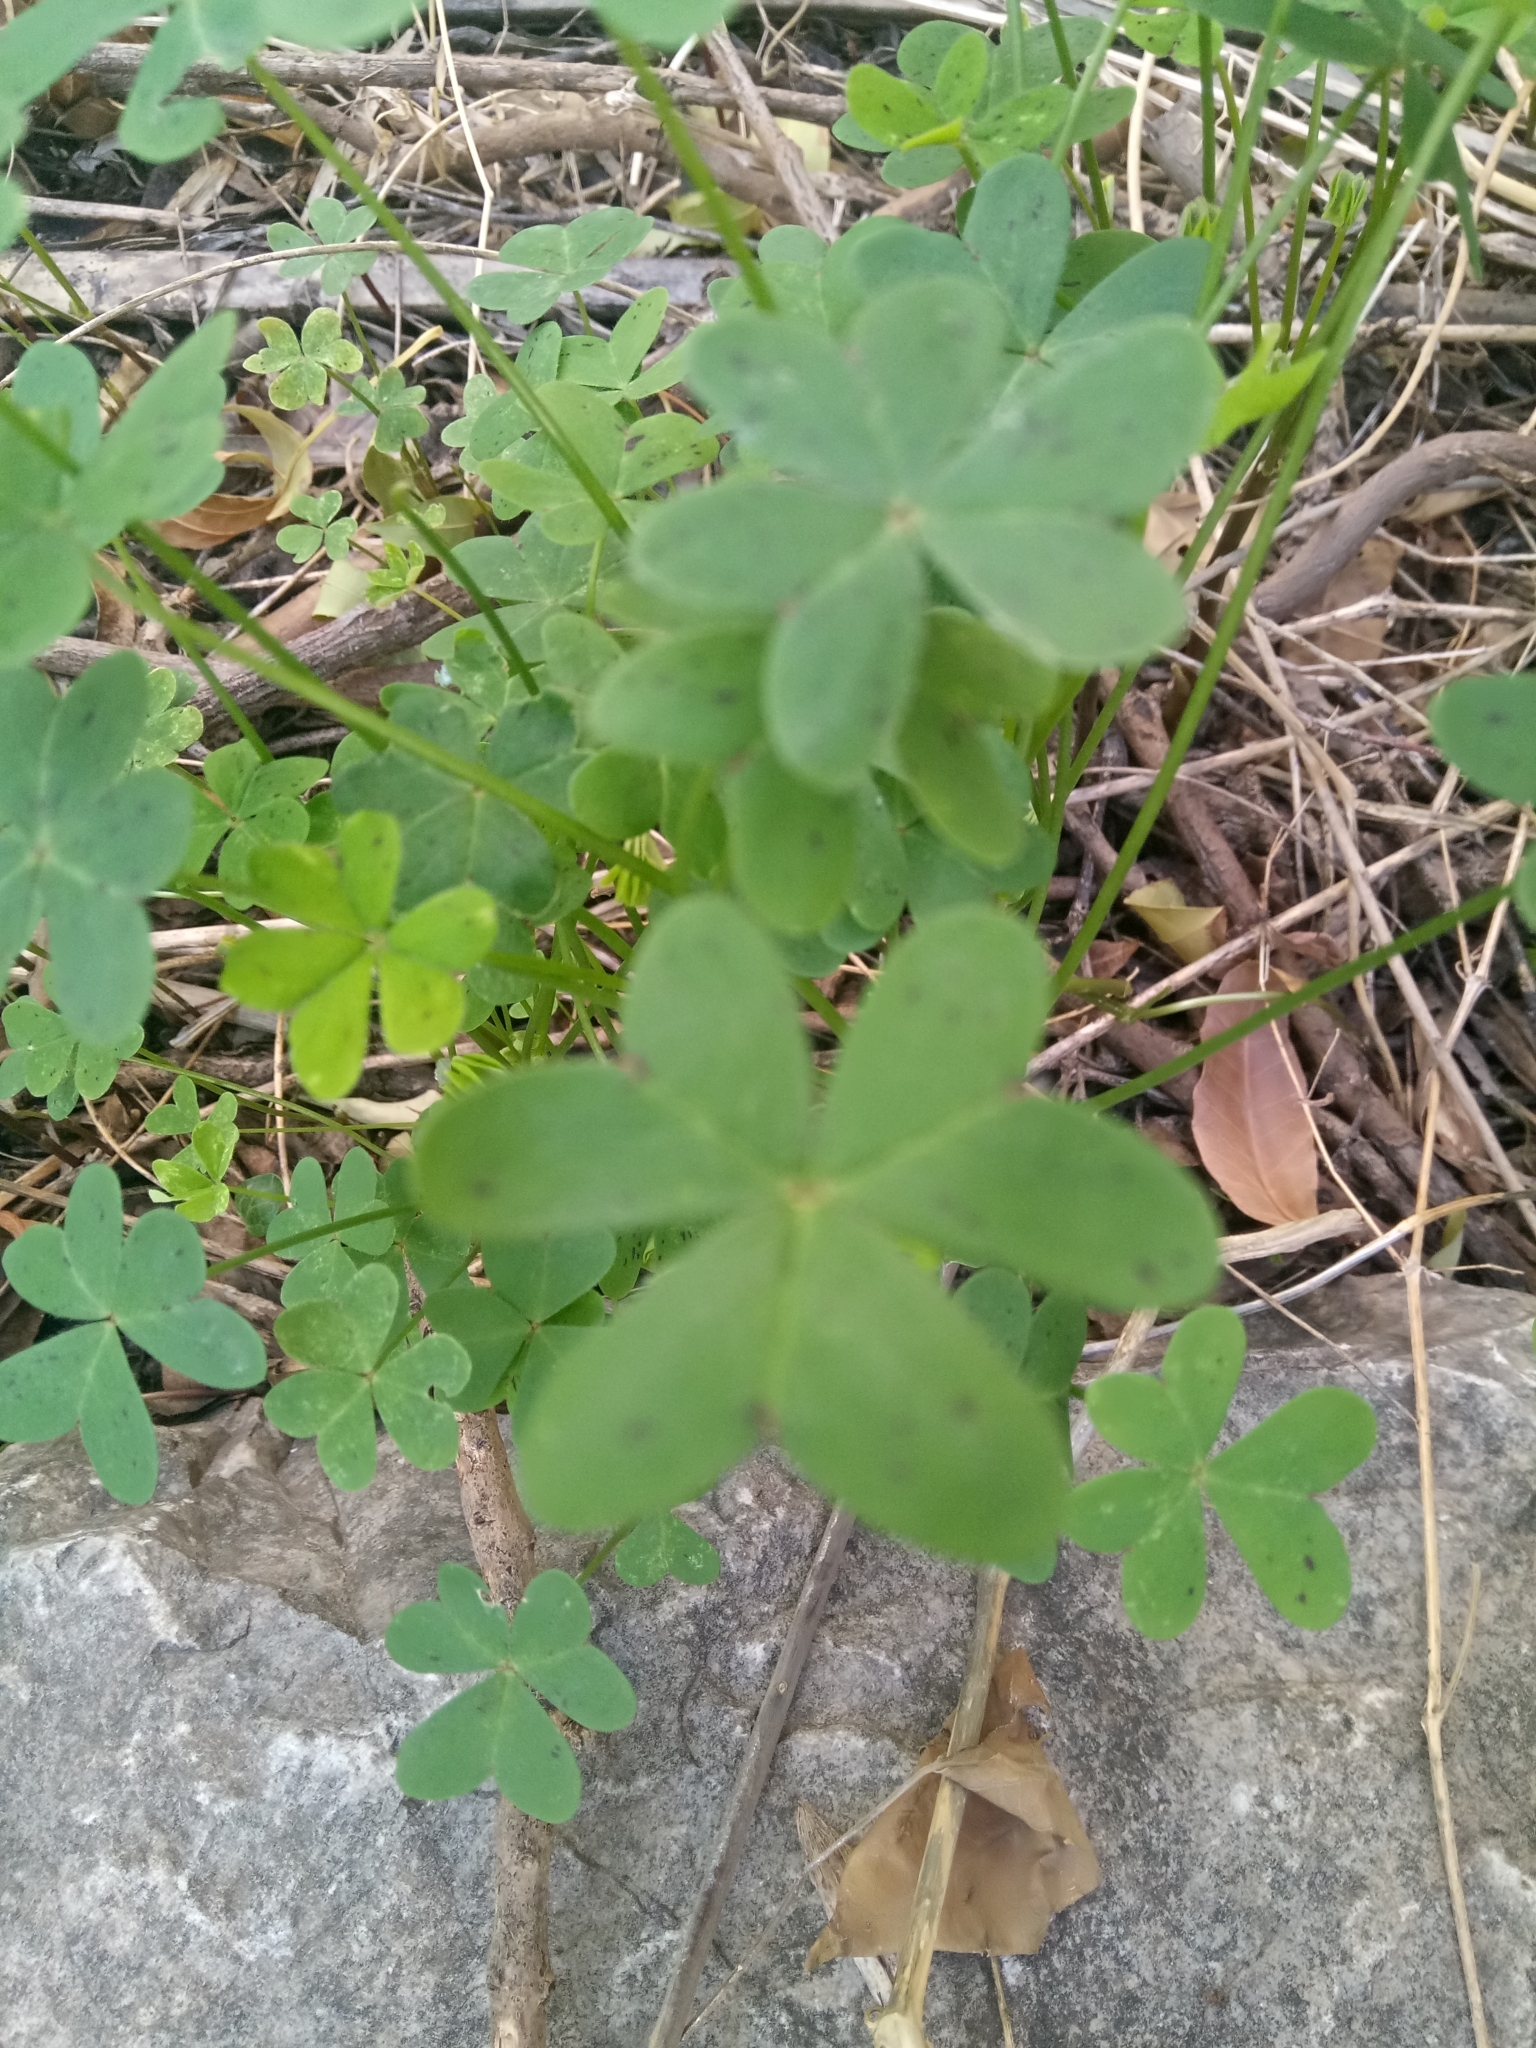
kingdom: Plantae
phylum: Tracheophyta
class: Magnoliopsida
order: Oxalidales
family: Oxalidaceae
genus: Oxalis
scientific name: Oxalis pes-caprae
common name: Bermuda-buttercup
